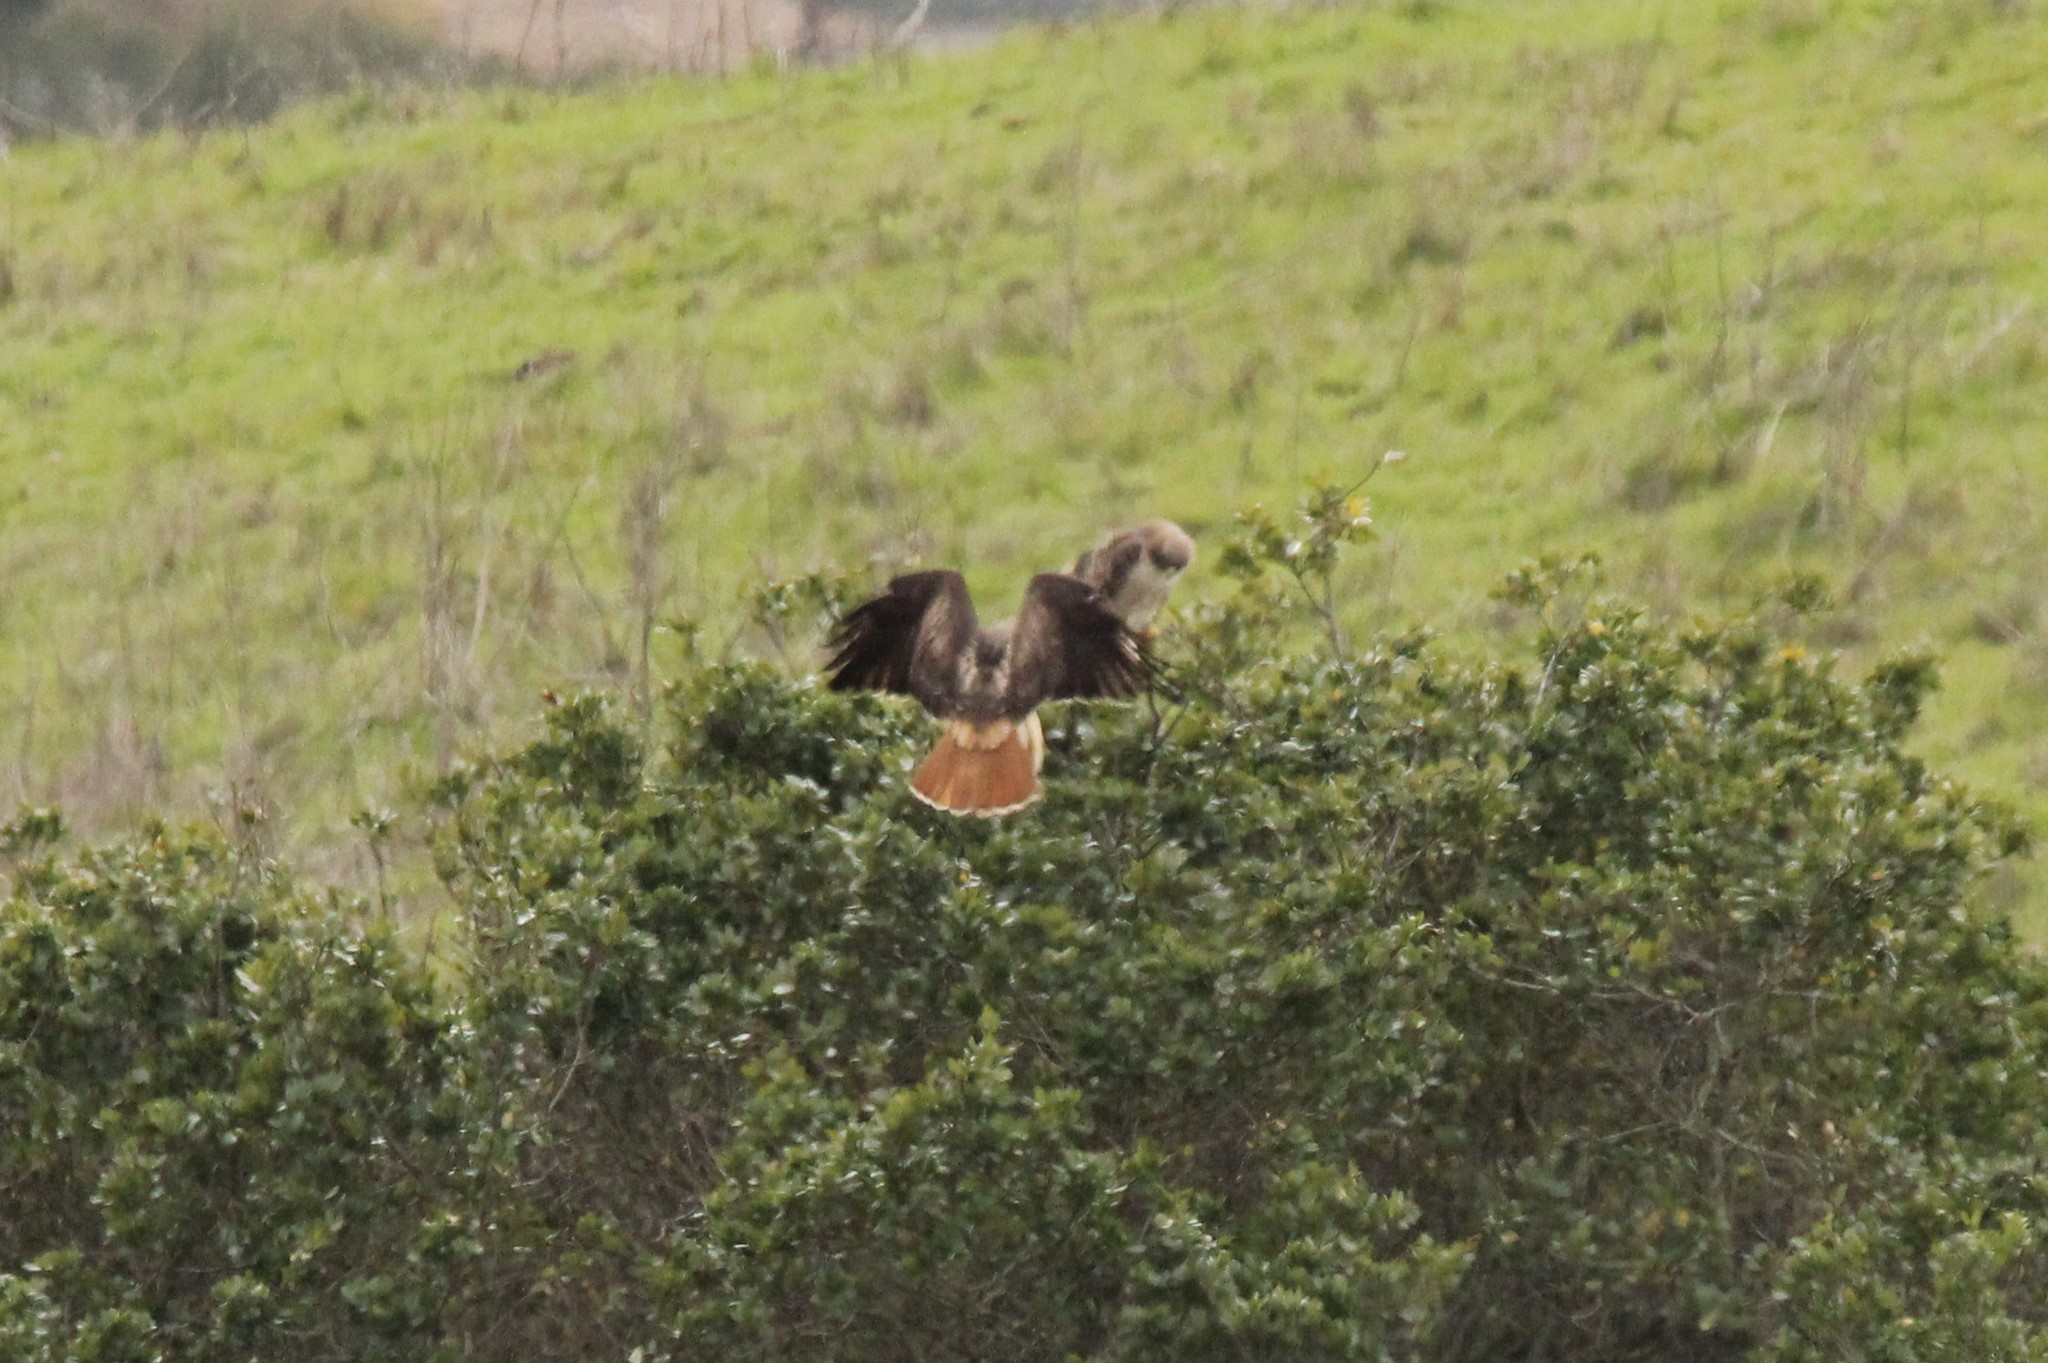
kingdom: Animalia
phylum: Chordata
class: Aves
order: Accipitriformes
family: Accipitridae
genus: Buteo
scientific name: Buteo jamaicensis
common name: Red-tailed hawk
